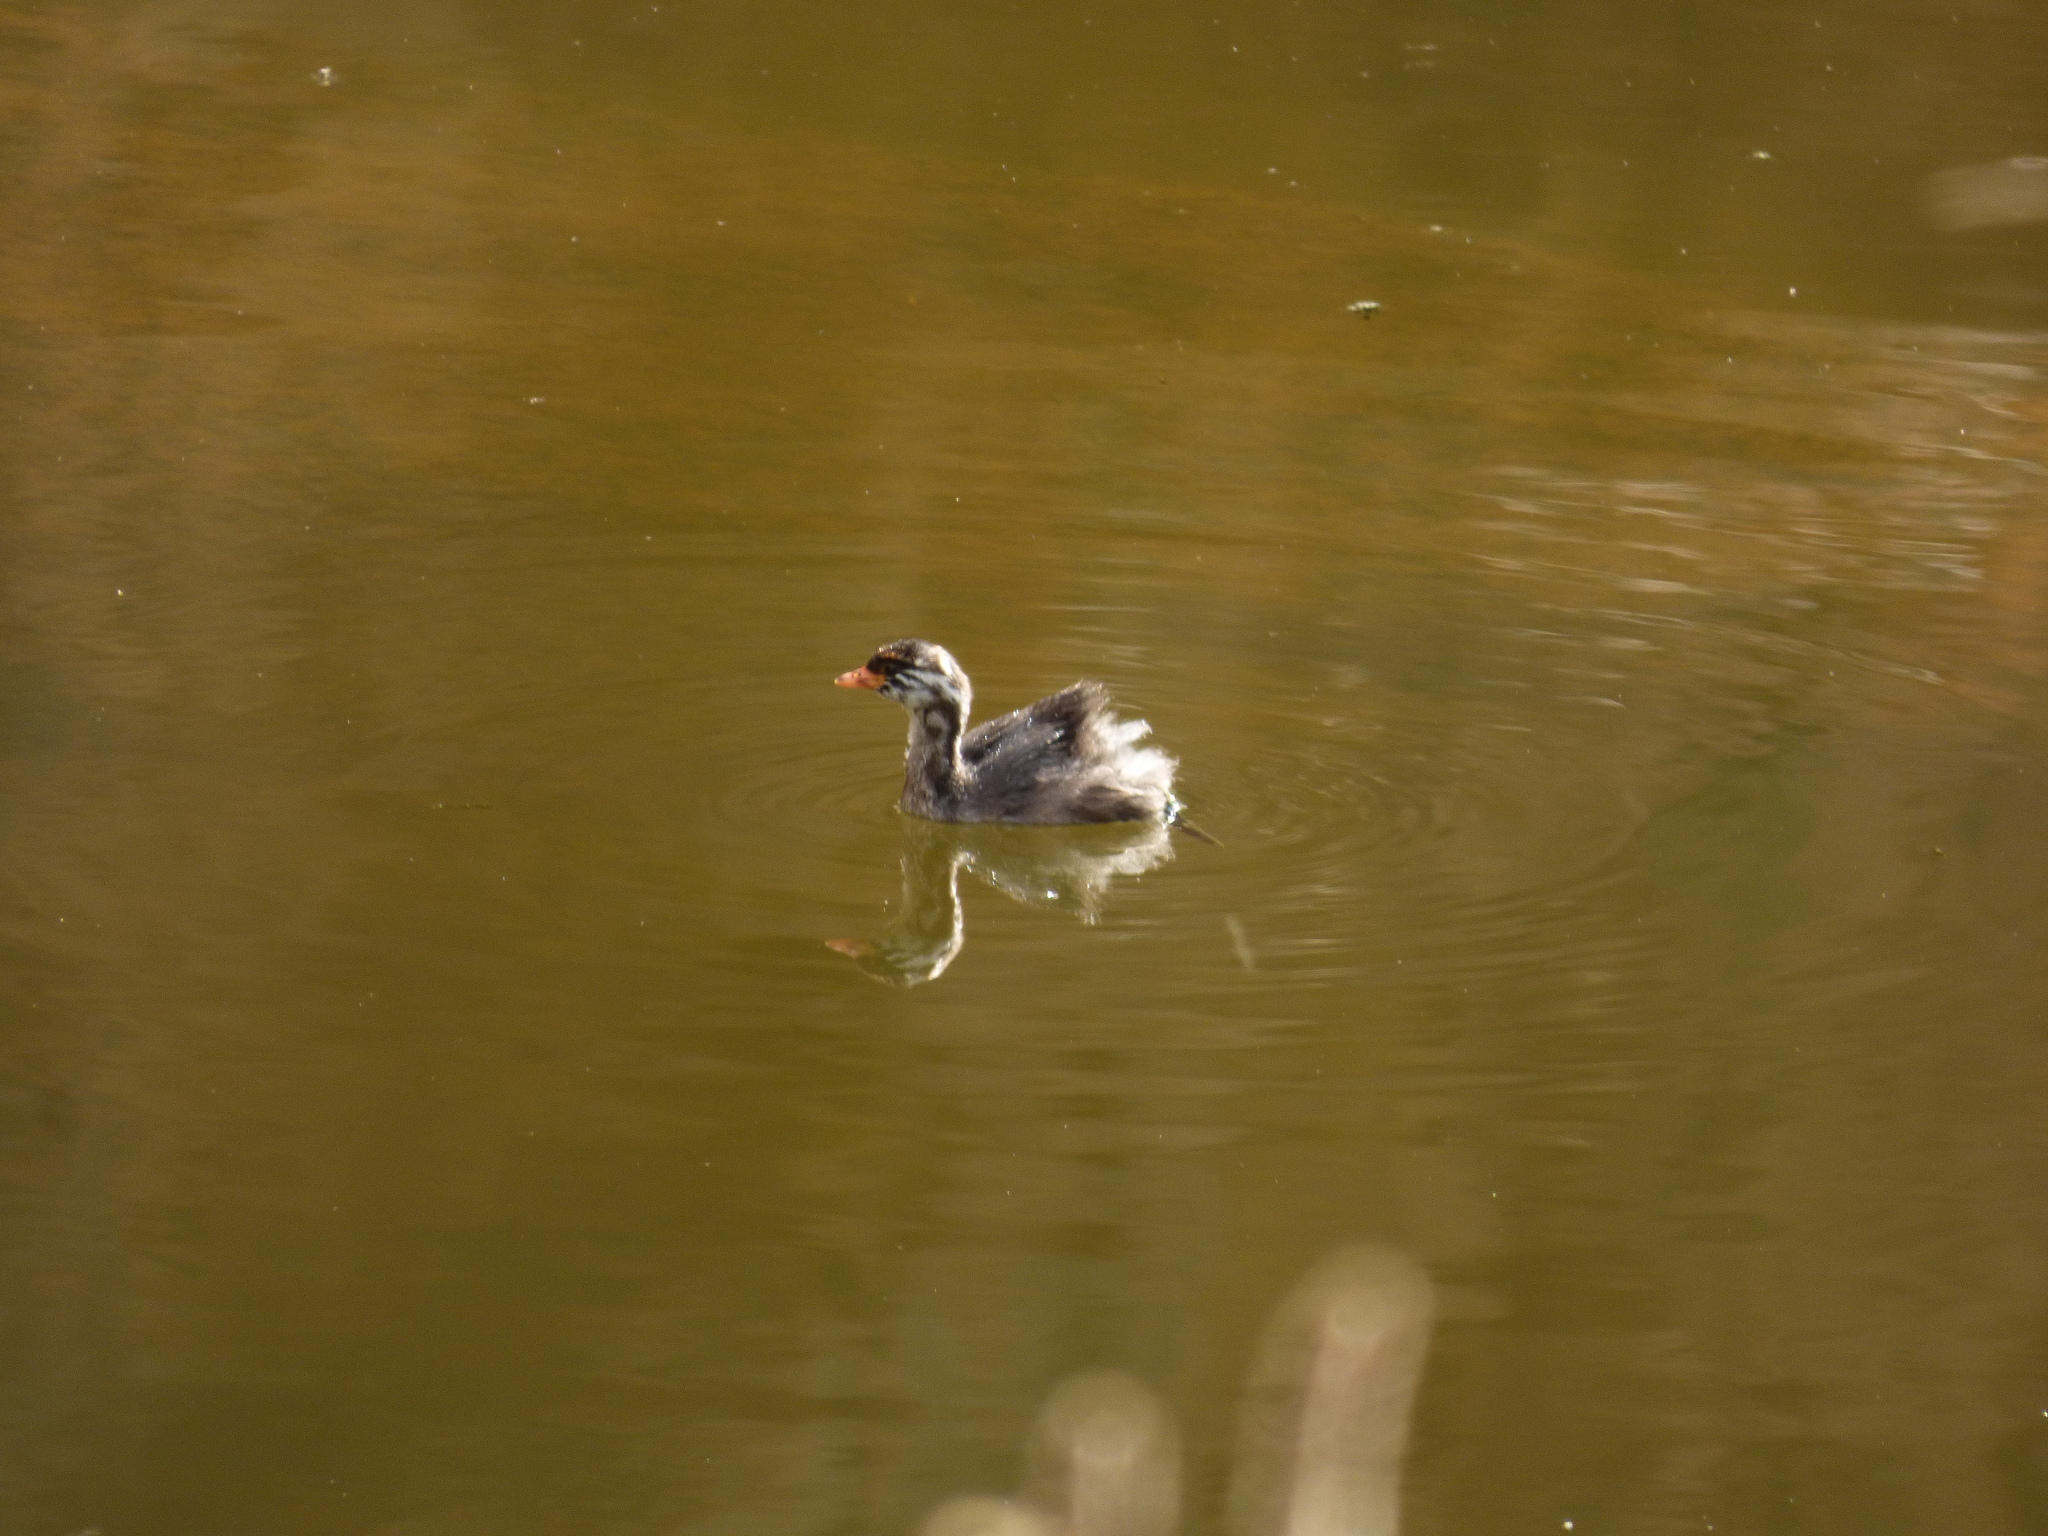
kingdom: Animalia
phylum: Chordata
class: Aves
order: Podicipediformes
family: Podicipedidae
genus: Tachybaptus
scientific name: Tachybaptus novaehollandiae
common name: Australasian grebe
